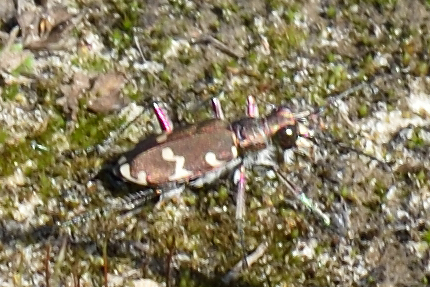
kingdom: Animalia
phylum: Arthropoda
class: Insecta
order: Coleoptera
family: Carabidae
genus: Cicindela
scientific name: Cicindela hybrida
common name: Northern dune tiger beetle
